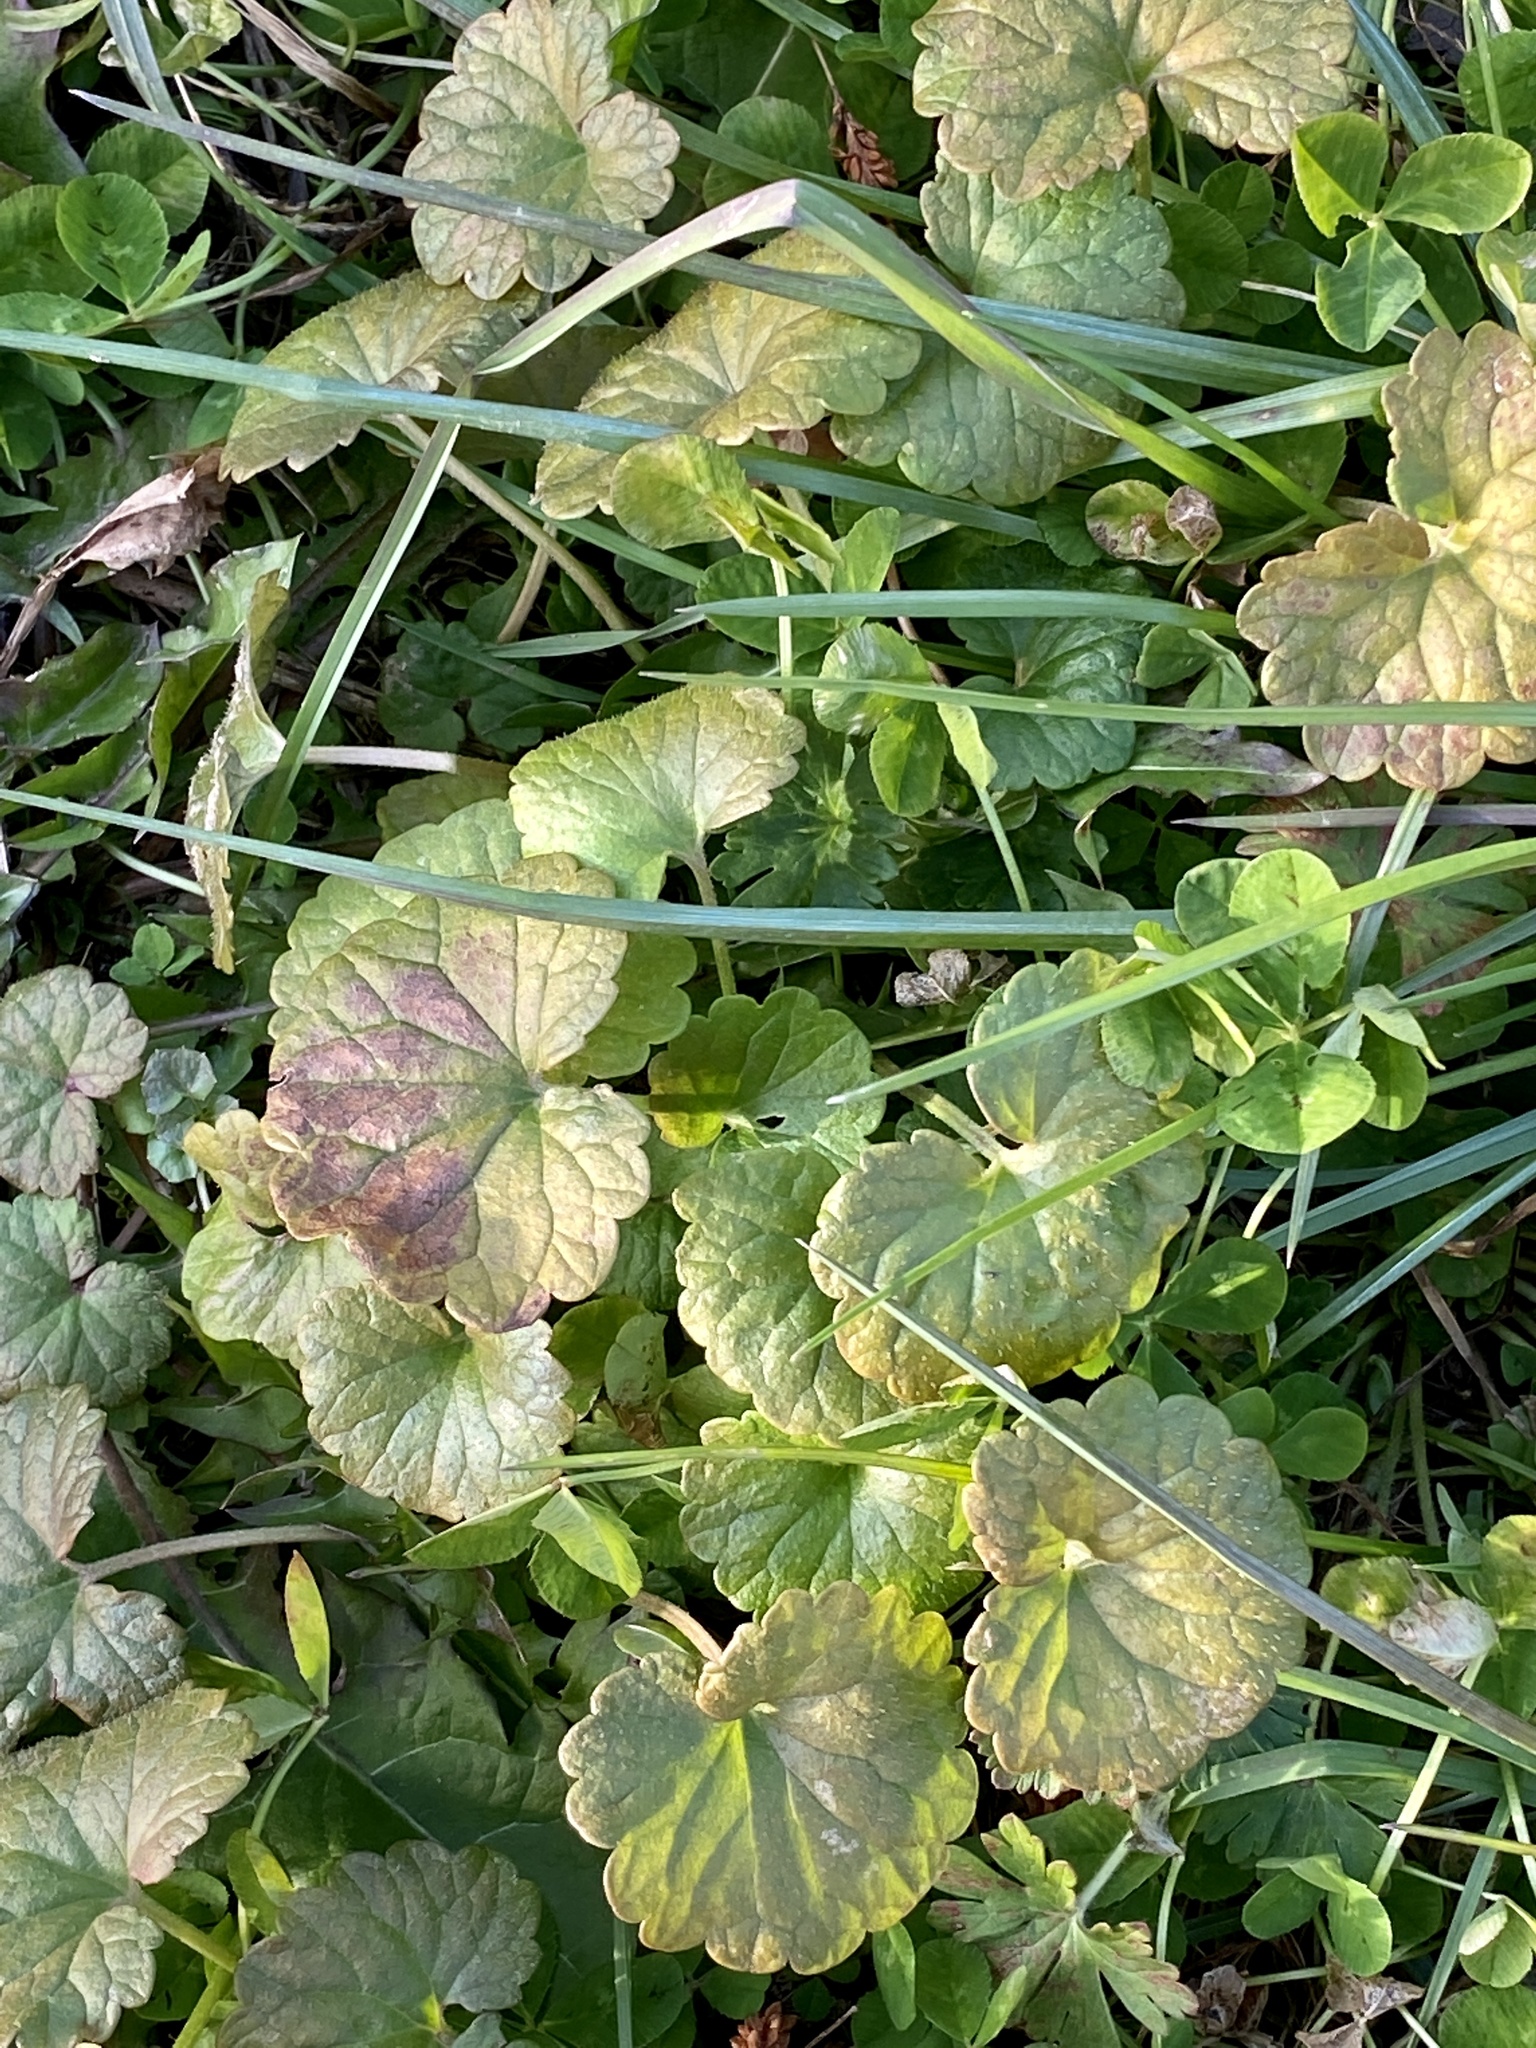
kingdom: Plantae
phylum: Tracheophyta
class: Magnoliopsida
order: Lamiales
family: Lamiaceae
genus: Glechoma
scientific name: Glechoma hederacea
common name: Ground ivy
